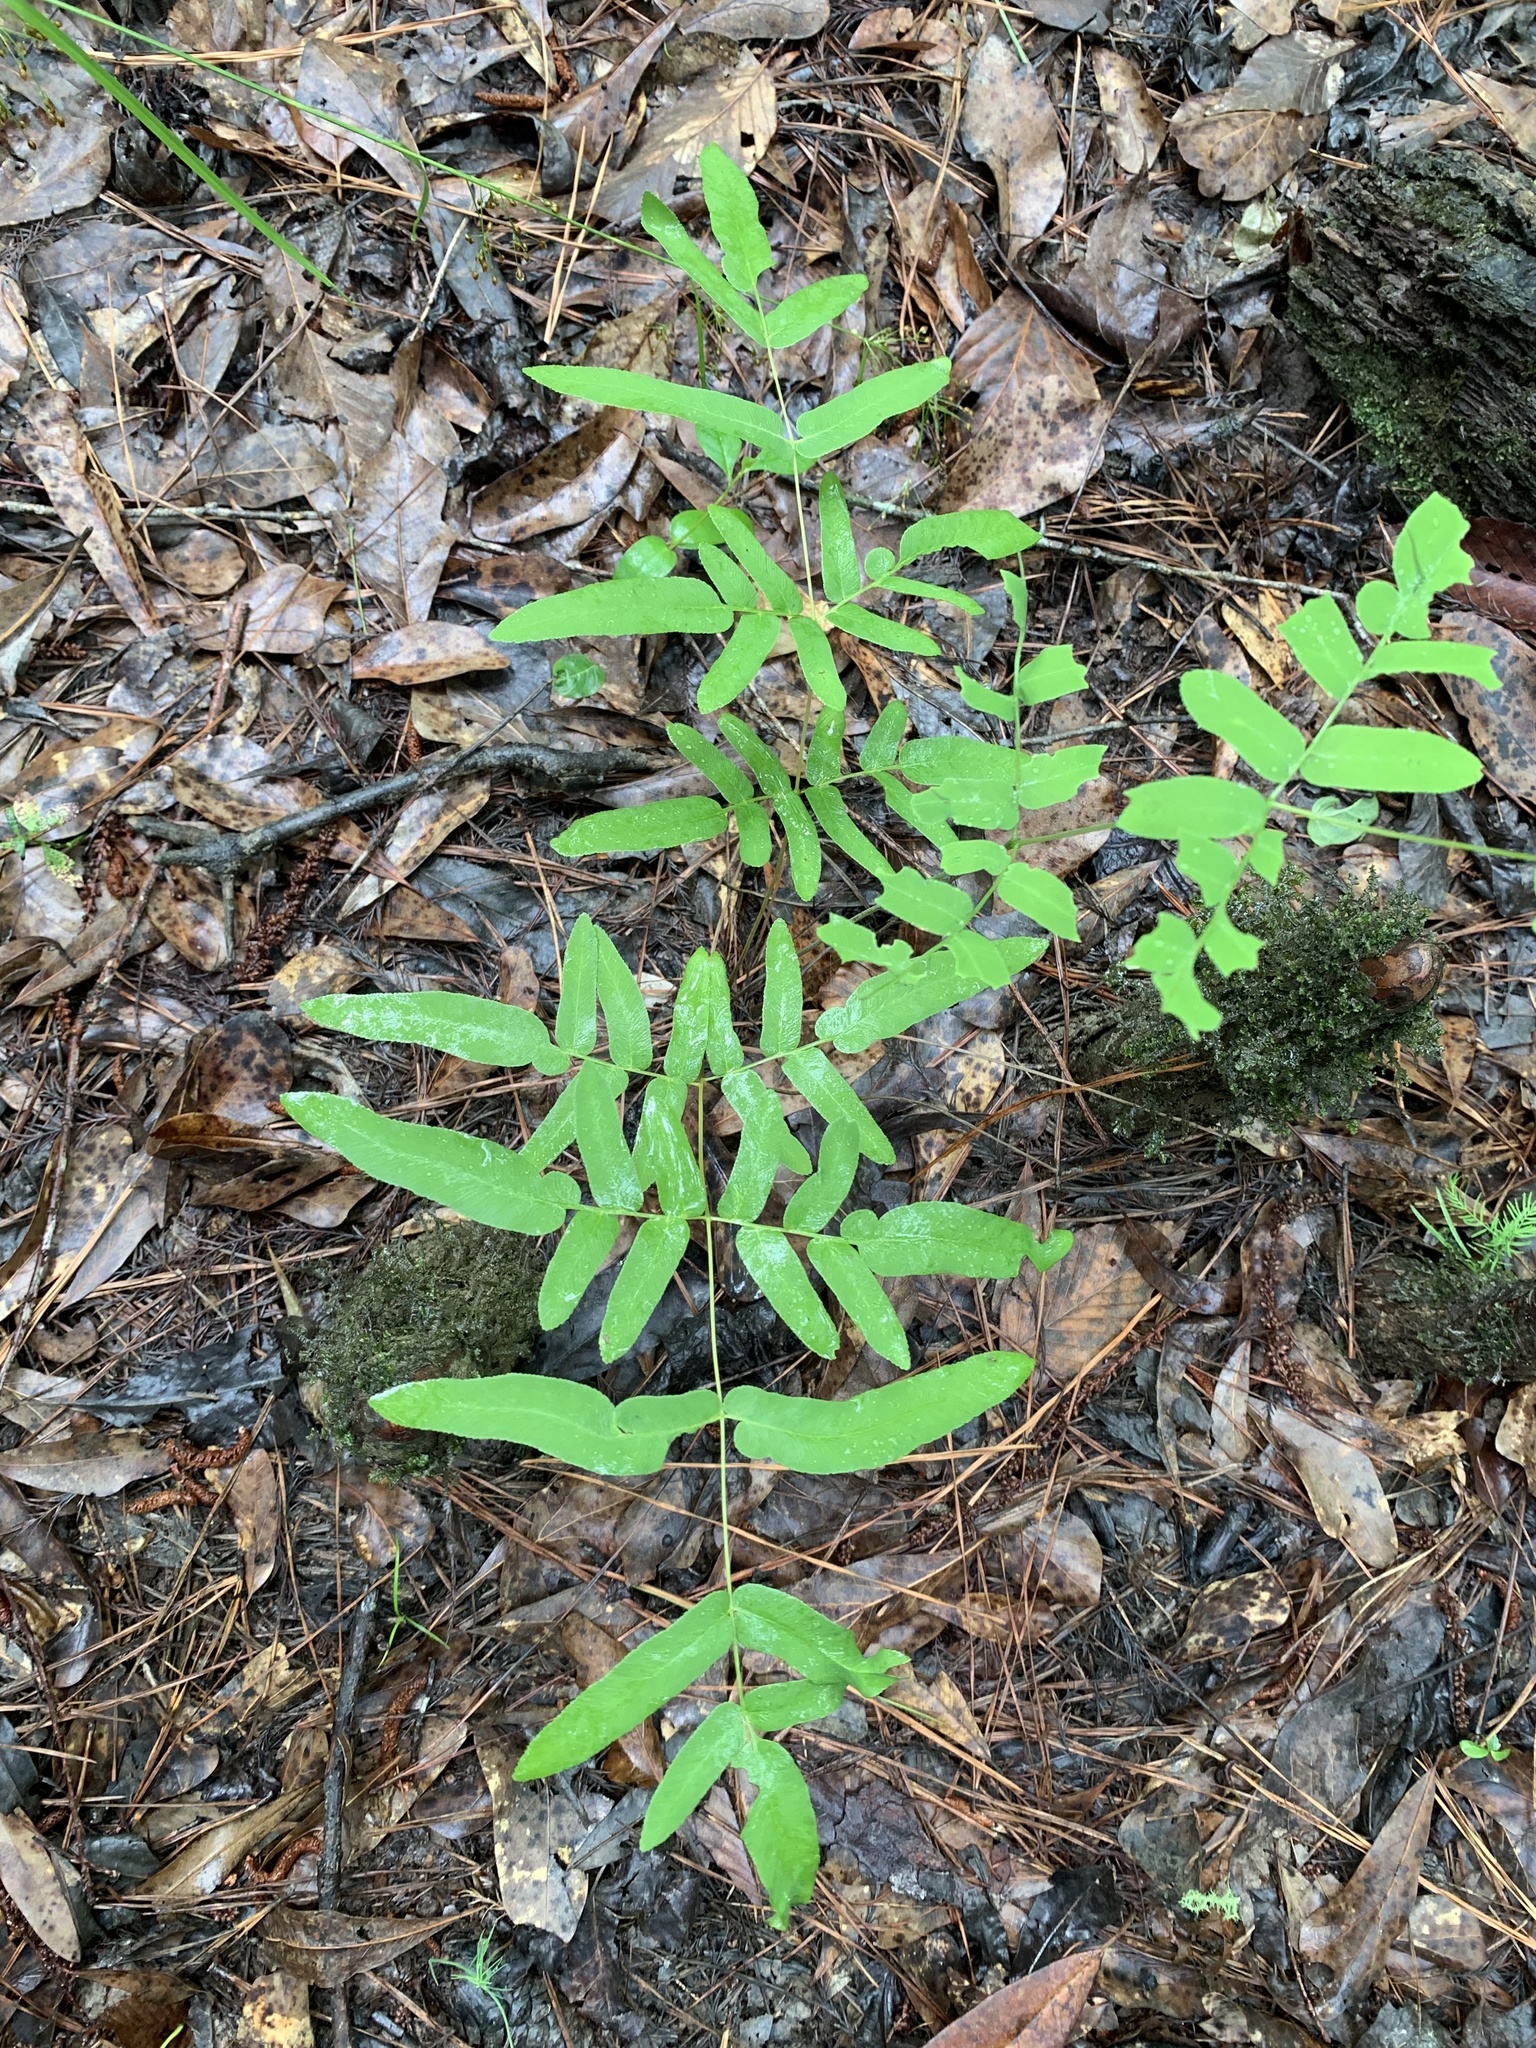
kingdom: Plantae
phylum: Tracheophyta
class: Polypodiopsida
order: Osmundales
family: Osmundaceae
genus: Osmunda
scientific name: Osmunda spectabilis
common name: American royal fern
